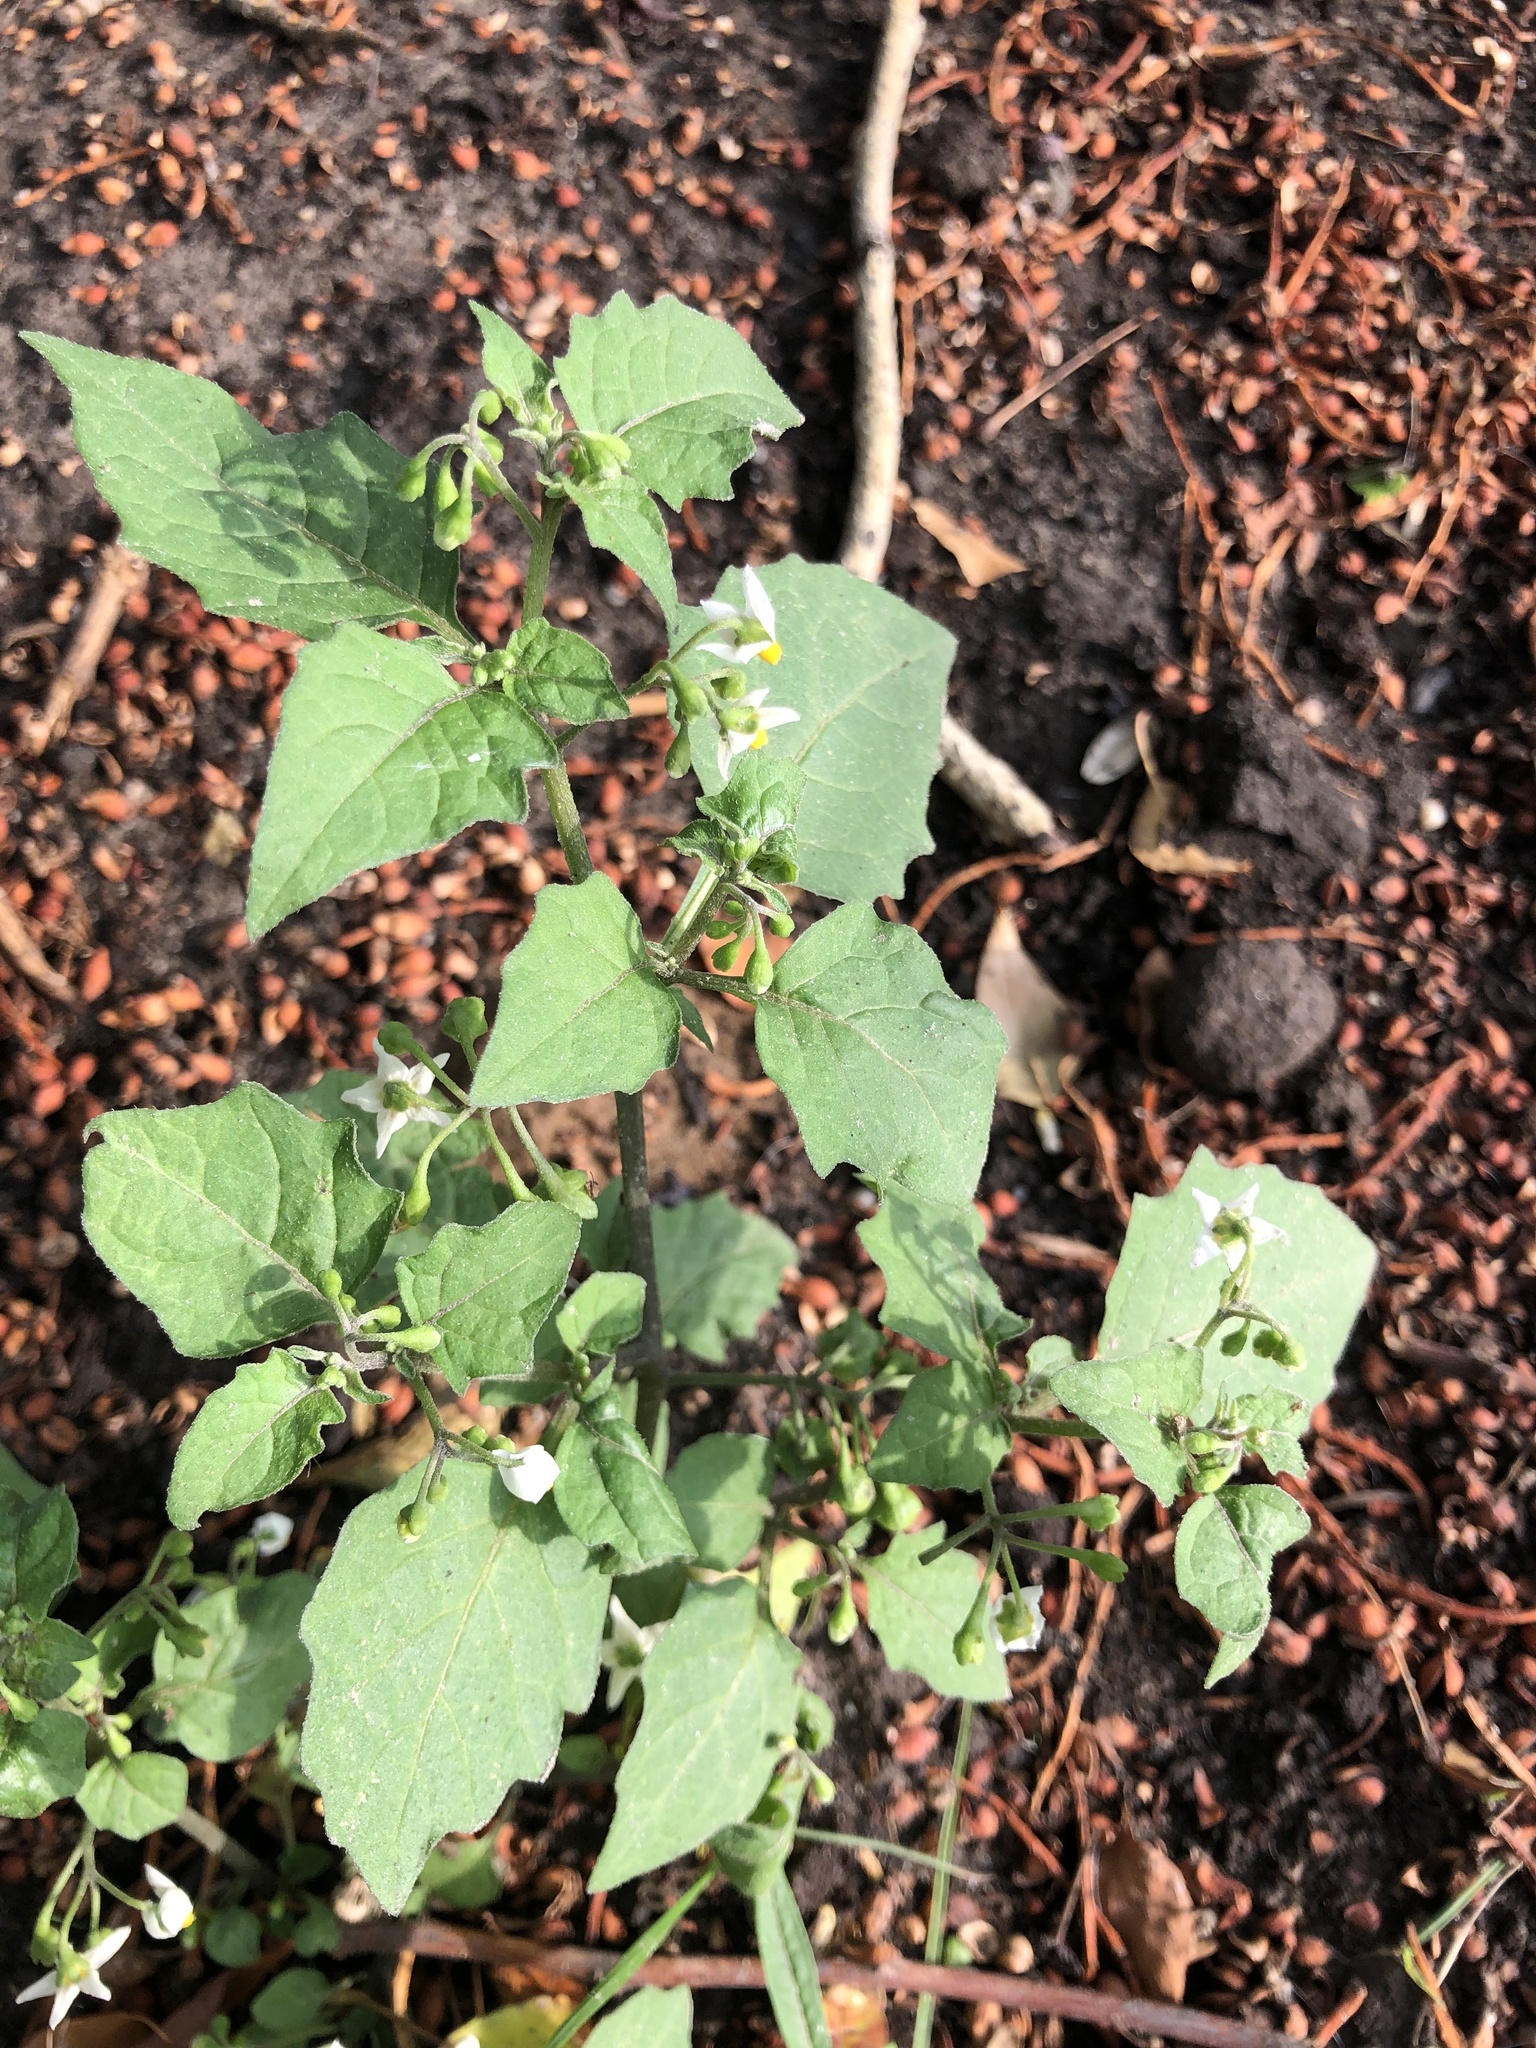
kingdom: Plantae
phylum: Tracheophyta
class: Magnoliopsida
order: Solanales
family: Solanaceae
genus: Solanum
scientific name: Solanum nigrum
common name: Black nightshade
